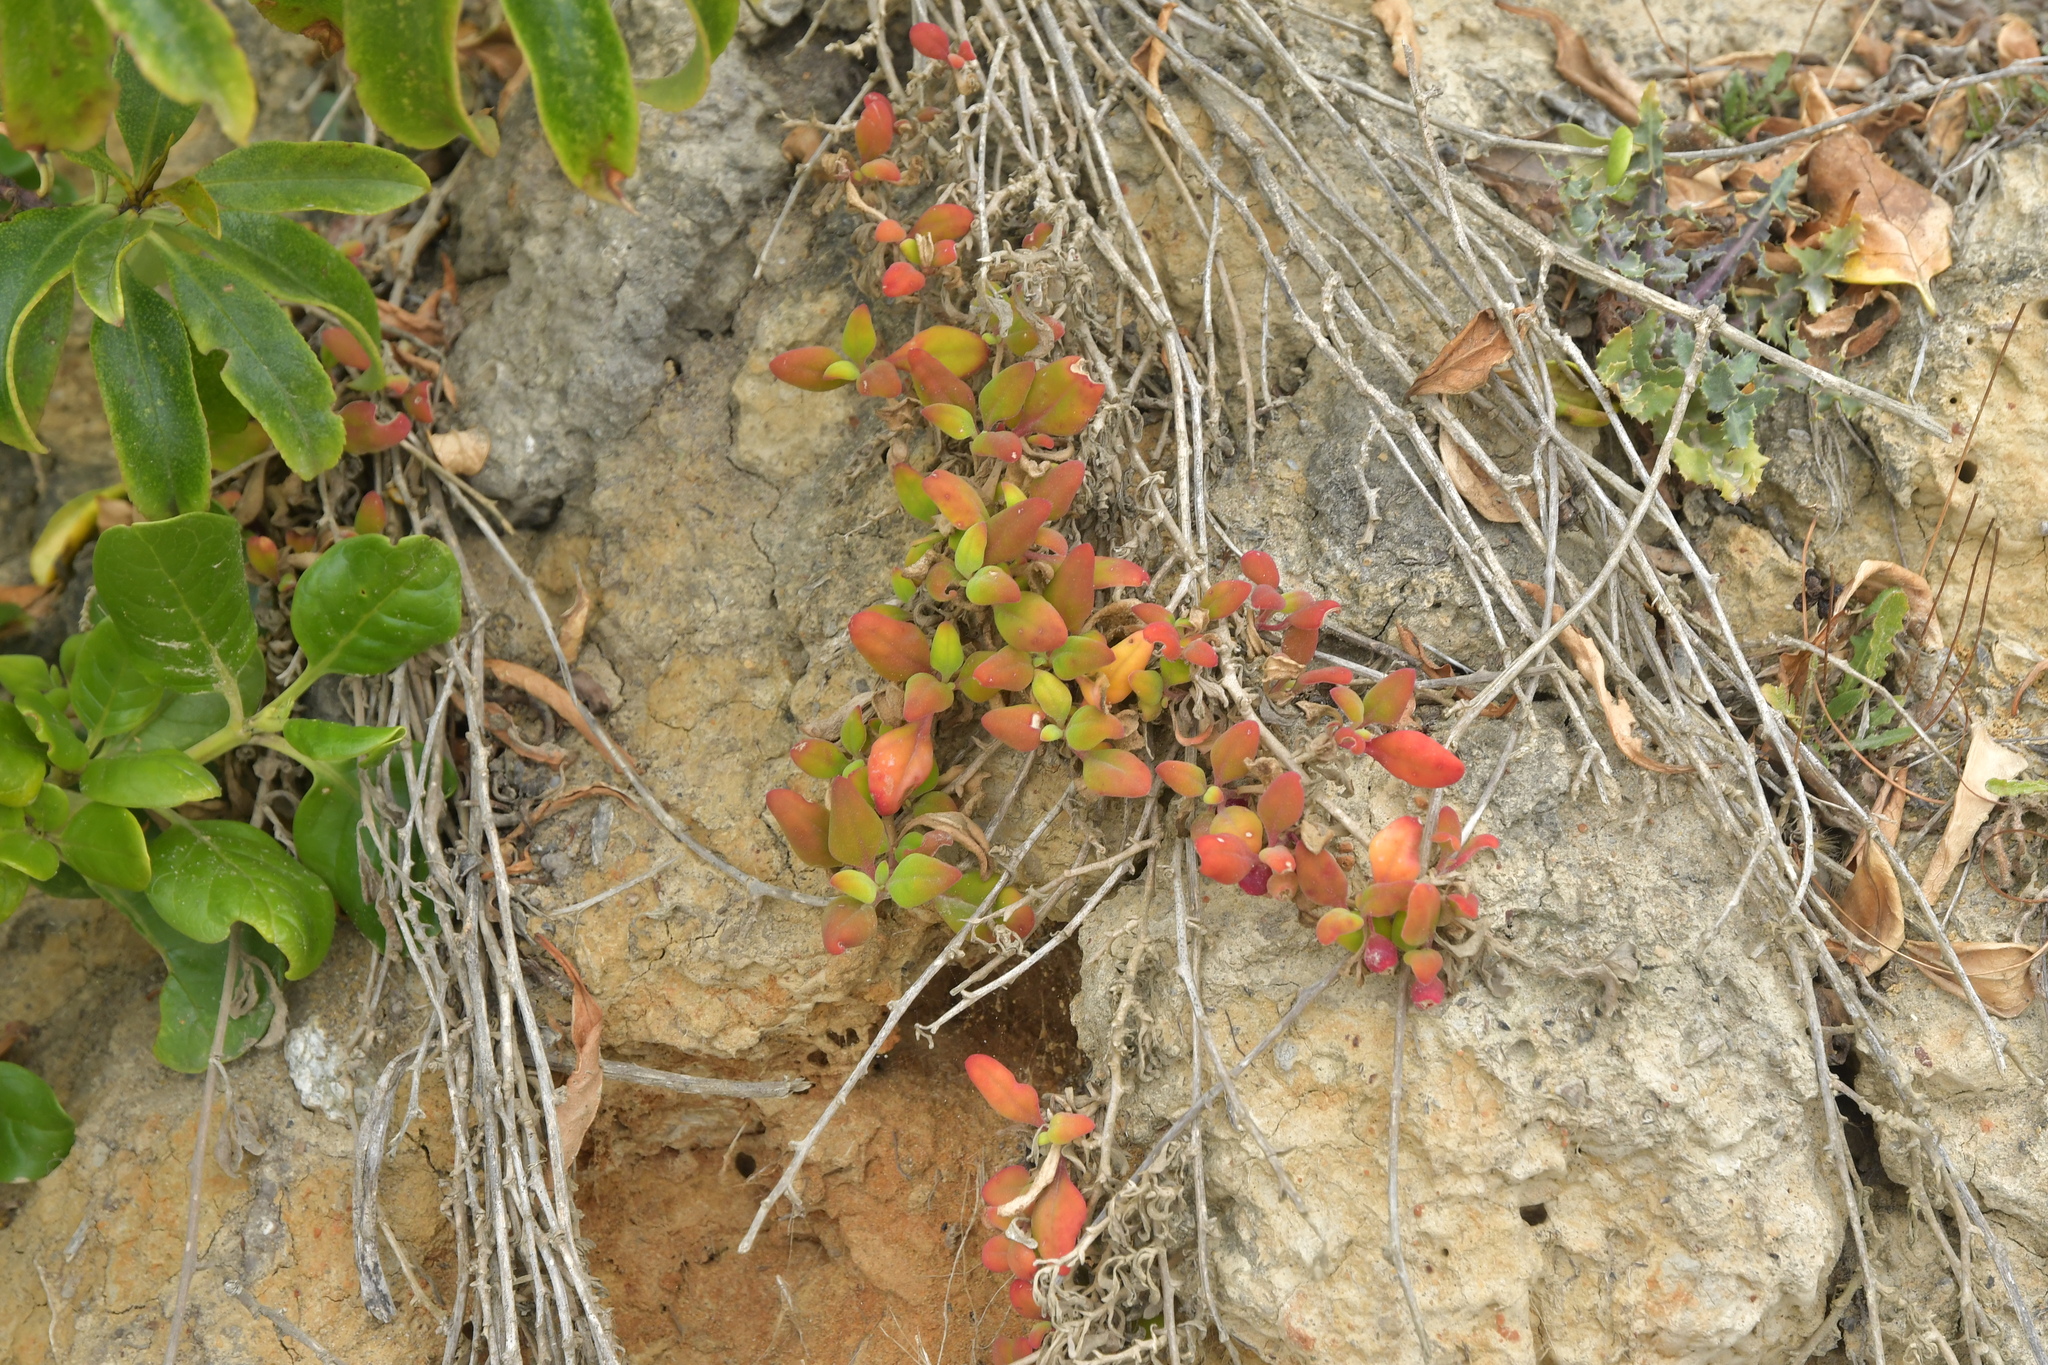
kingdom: Plantae
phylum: Tracheophyta
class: Magnoliopsida
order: Caryophyllales
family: Aizoaceae
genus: Tetragonia
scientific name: Tetragonia implexicoma
